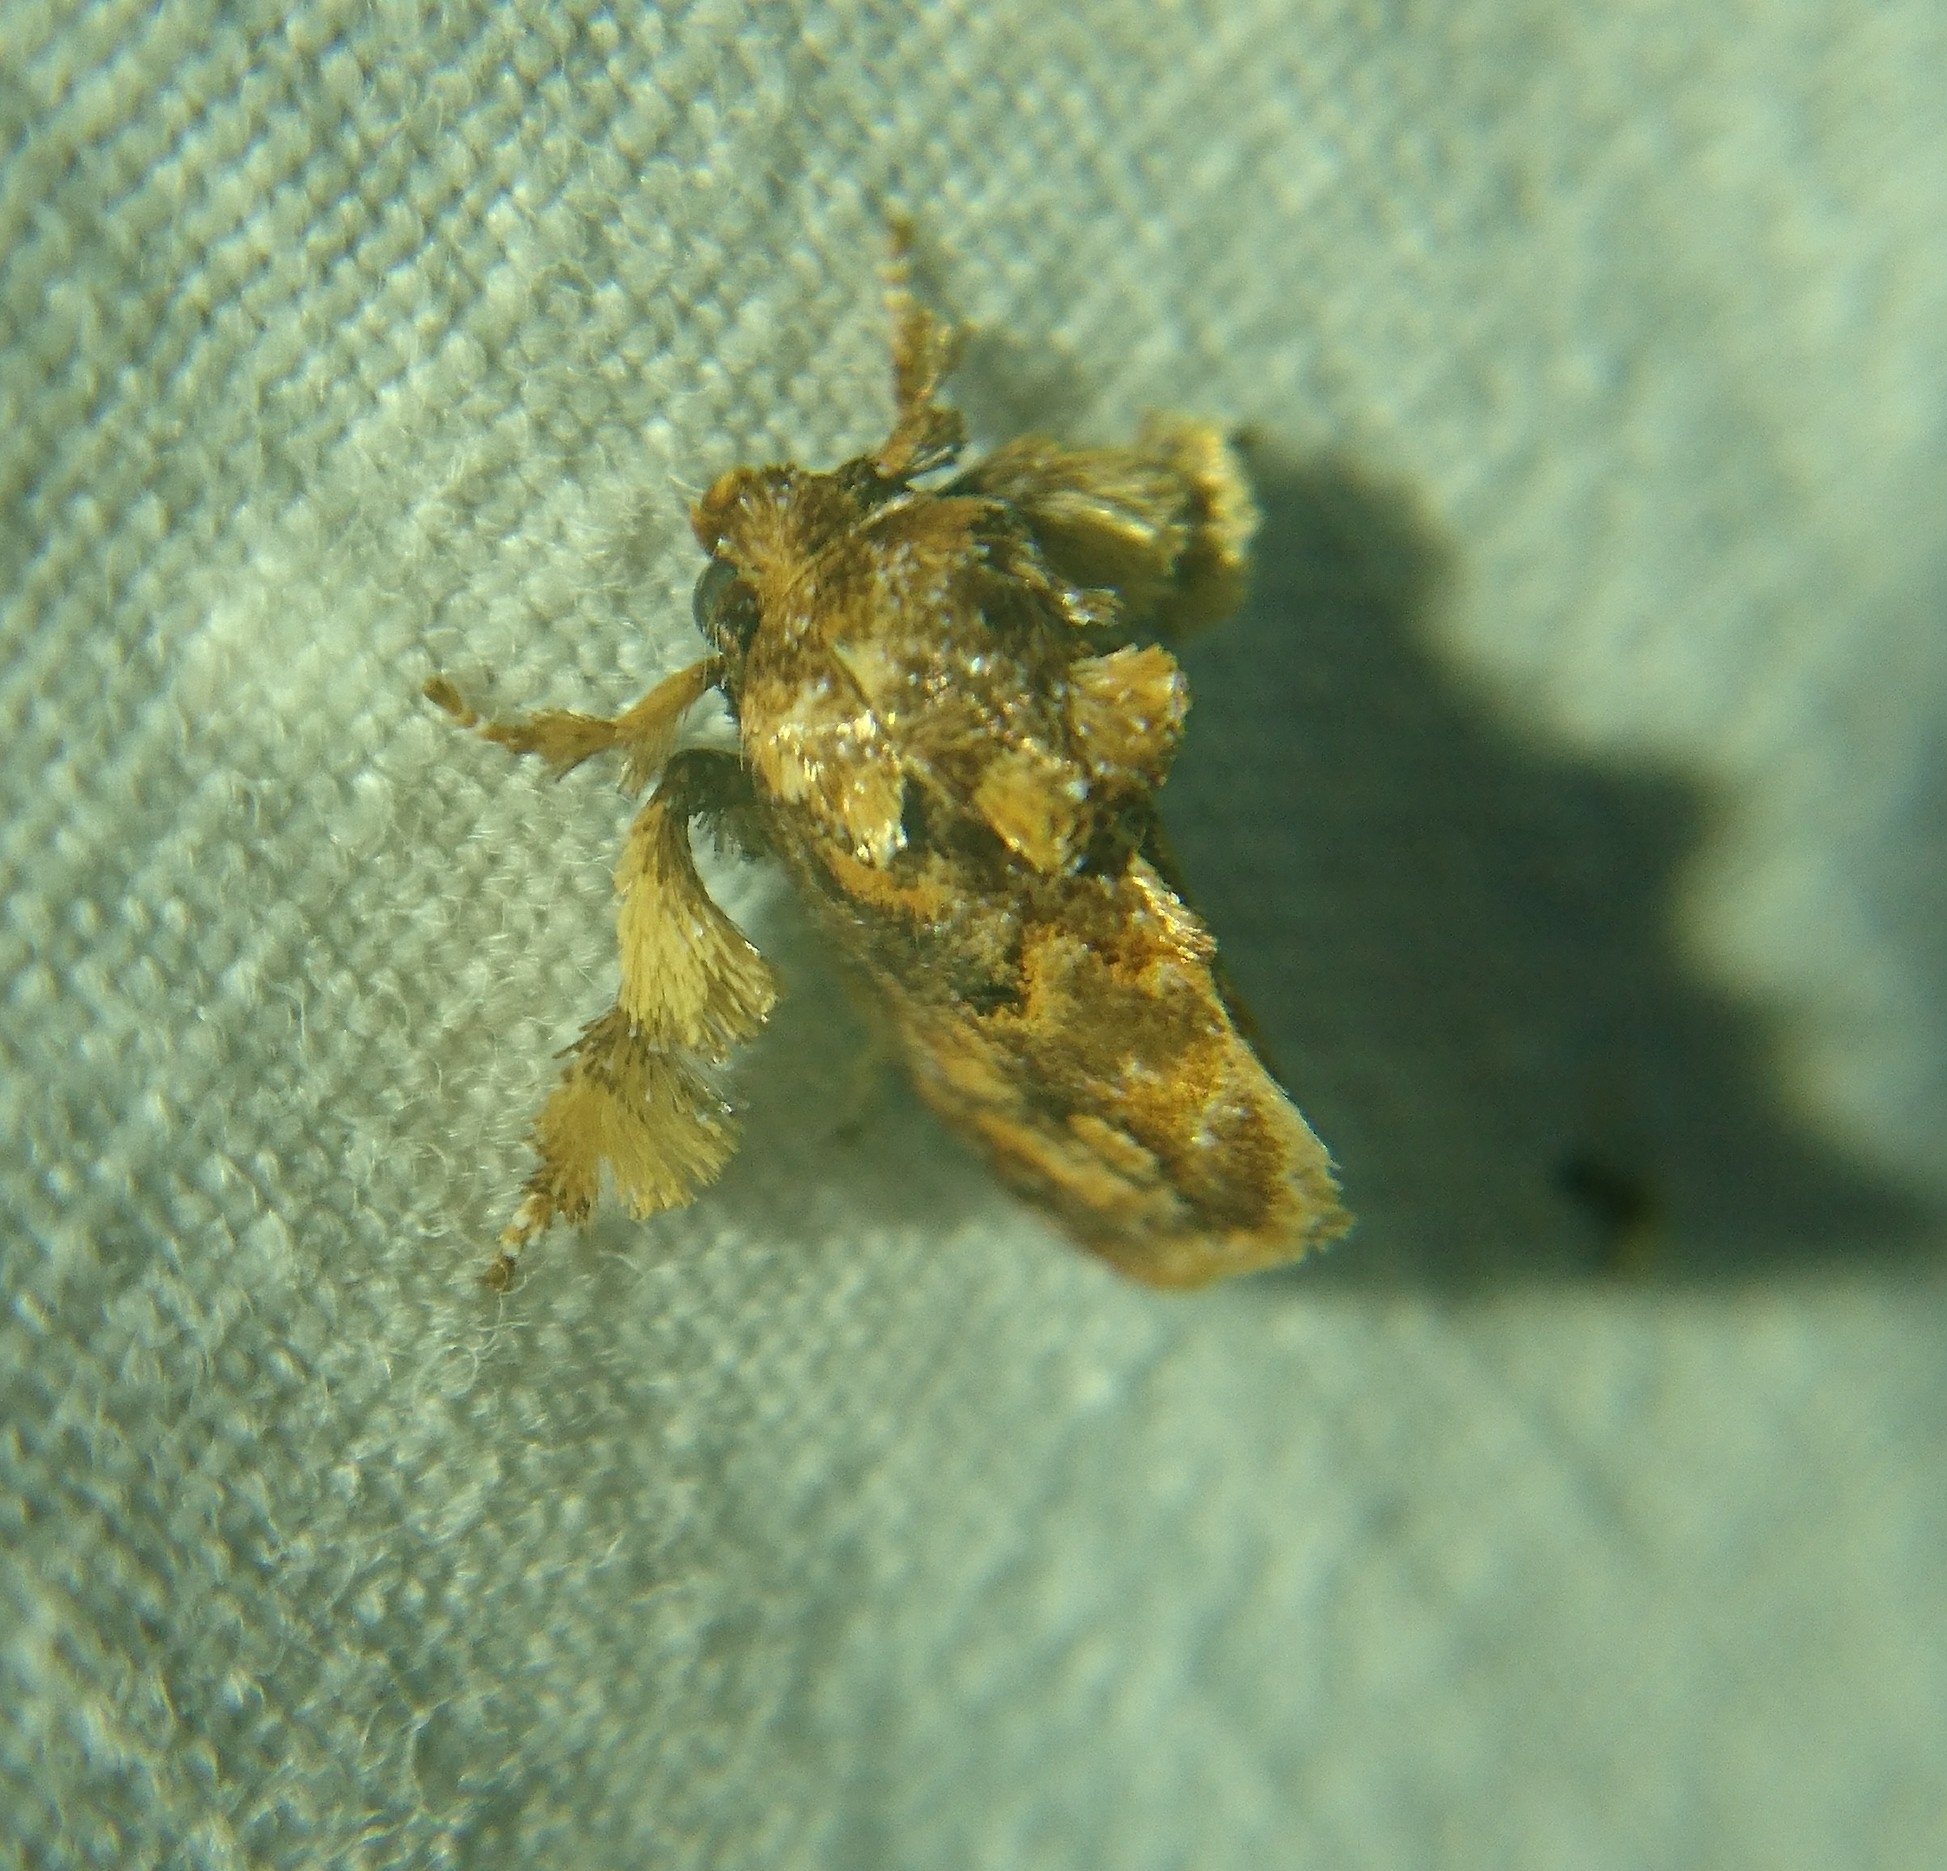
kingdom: Animalia
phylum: Arthropoda
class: Insecta
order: Lepidoptera
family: Limacodidae
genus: Isochaetes
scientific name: Isochaetes beutenmuelleri
